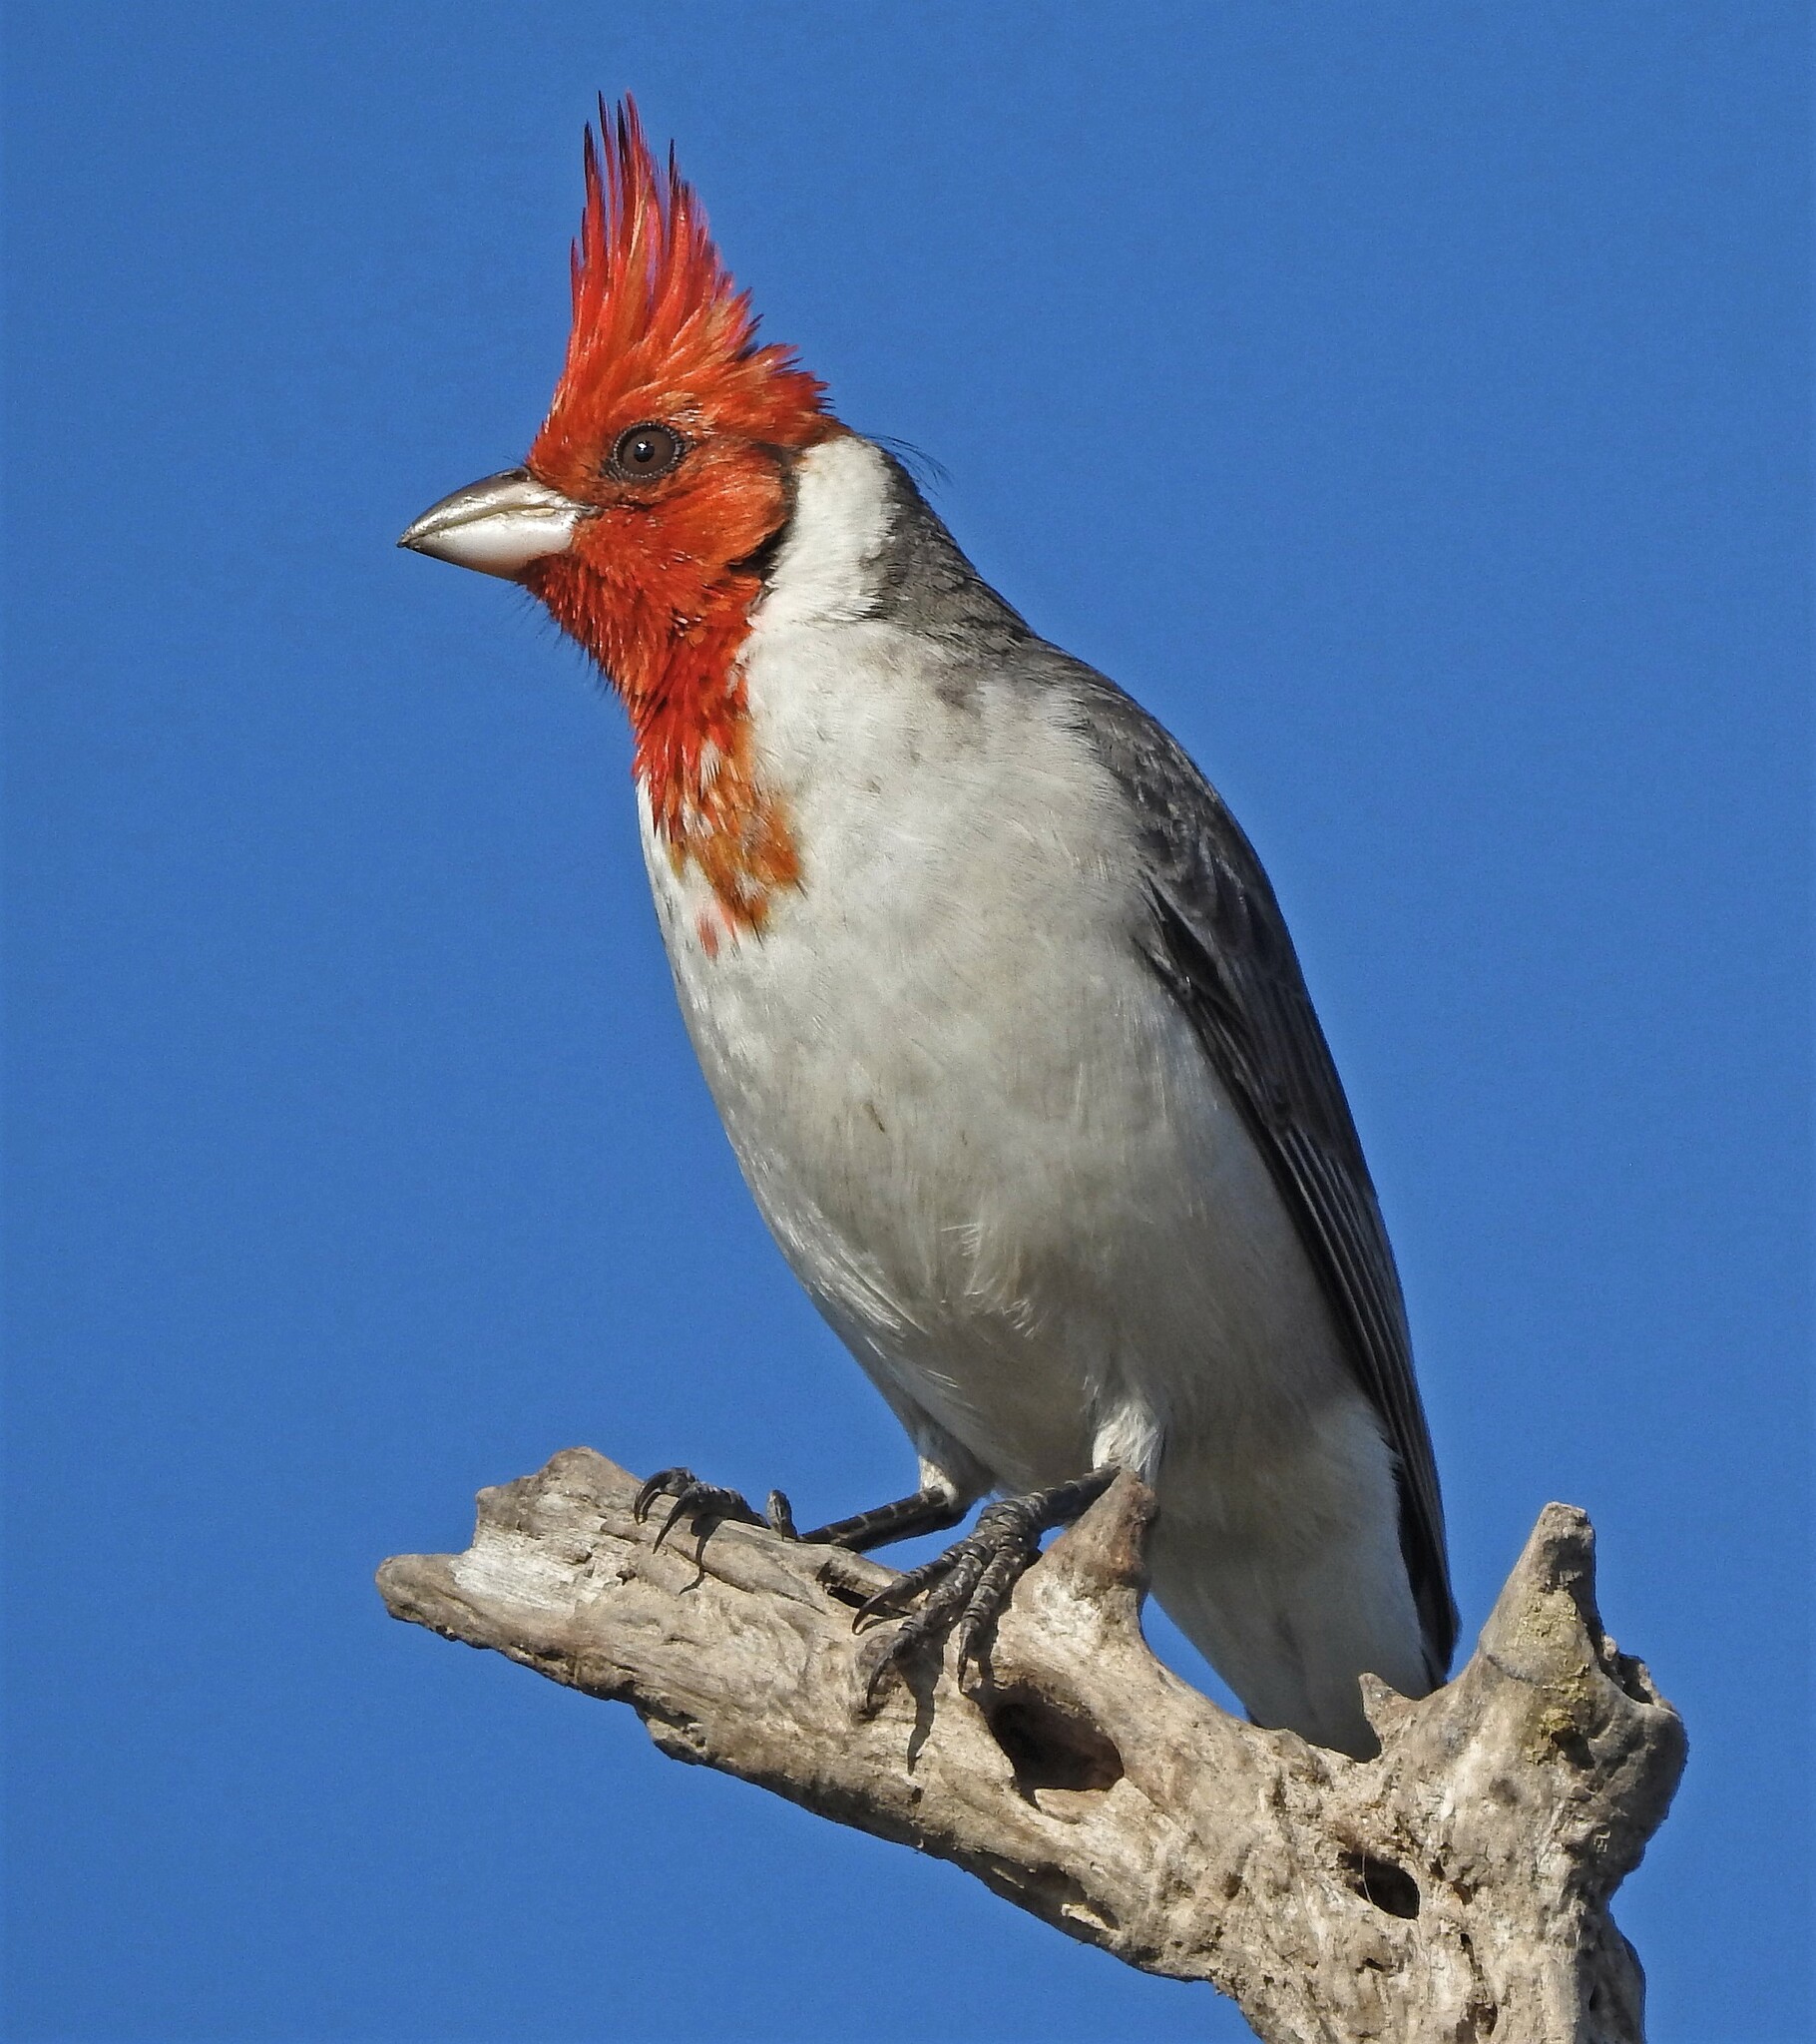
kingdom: Animalia
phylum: Chordata
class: Aves
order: Passeriformes
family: Thraupidae
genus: Paroaria
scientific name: Paroaria coronata
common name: Red-crested cardinal
